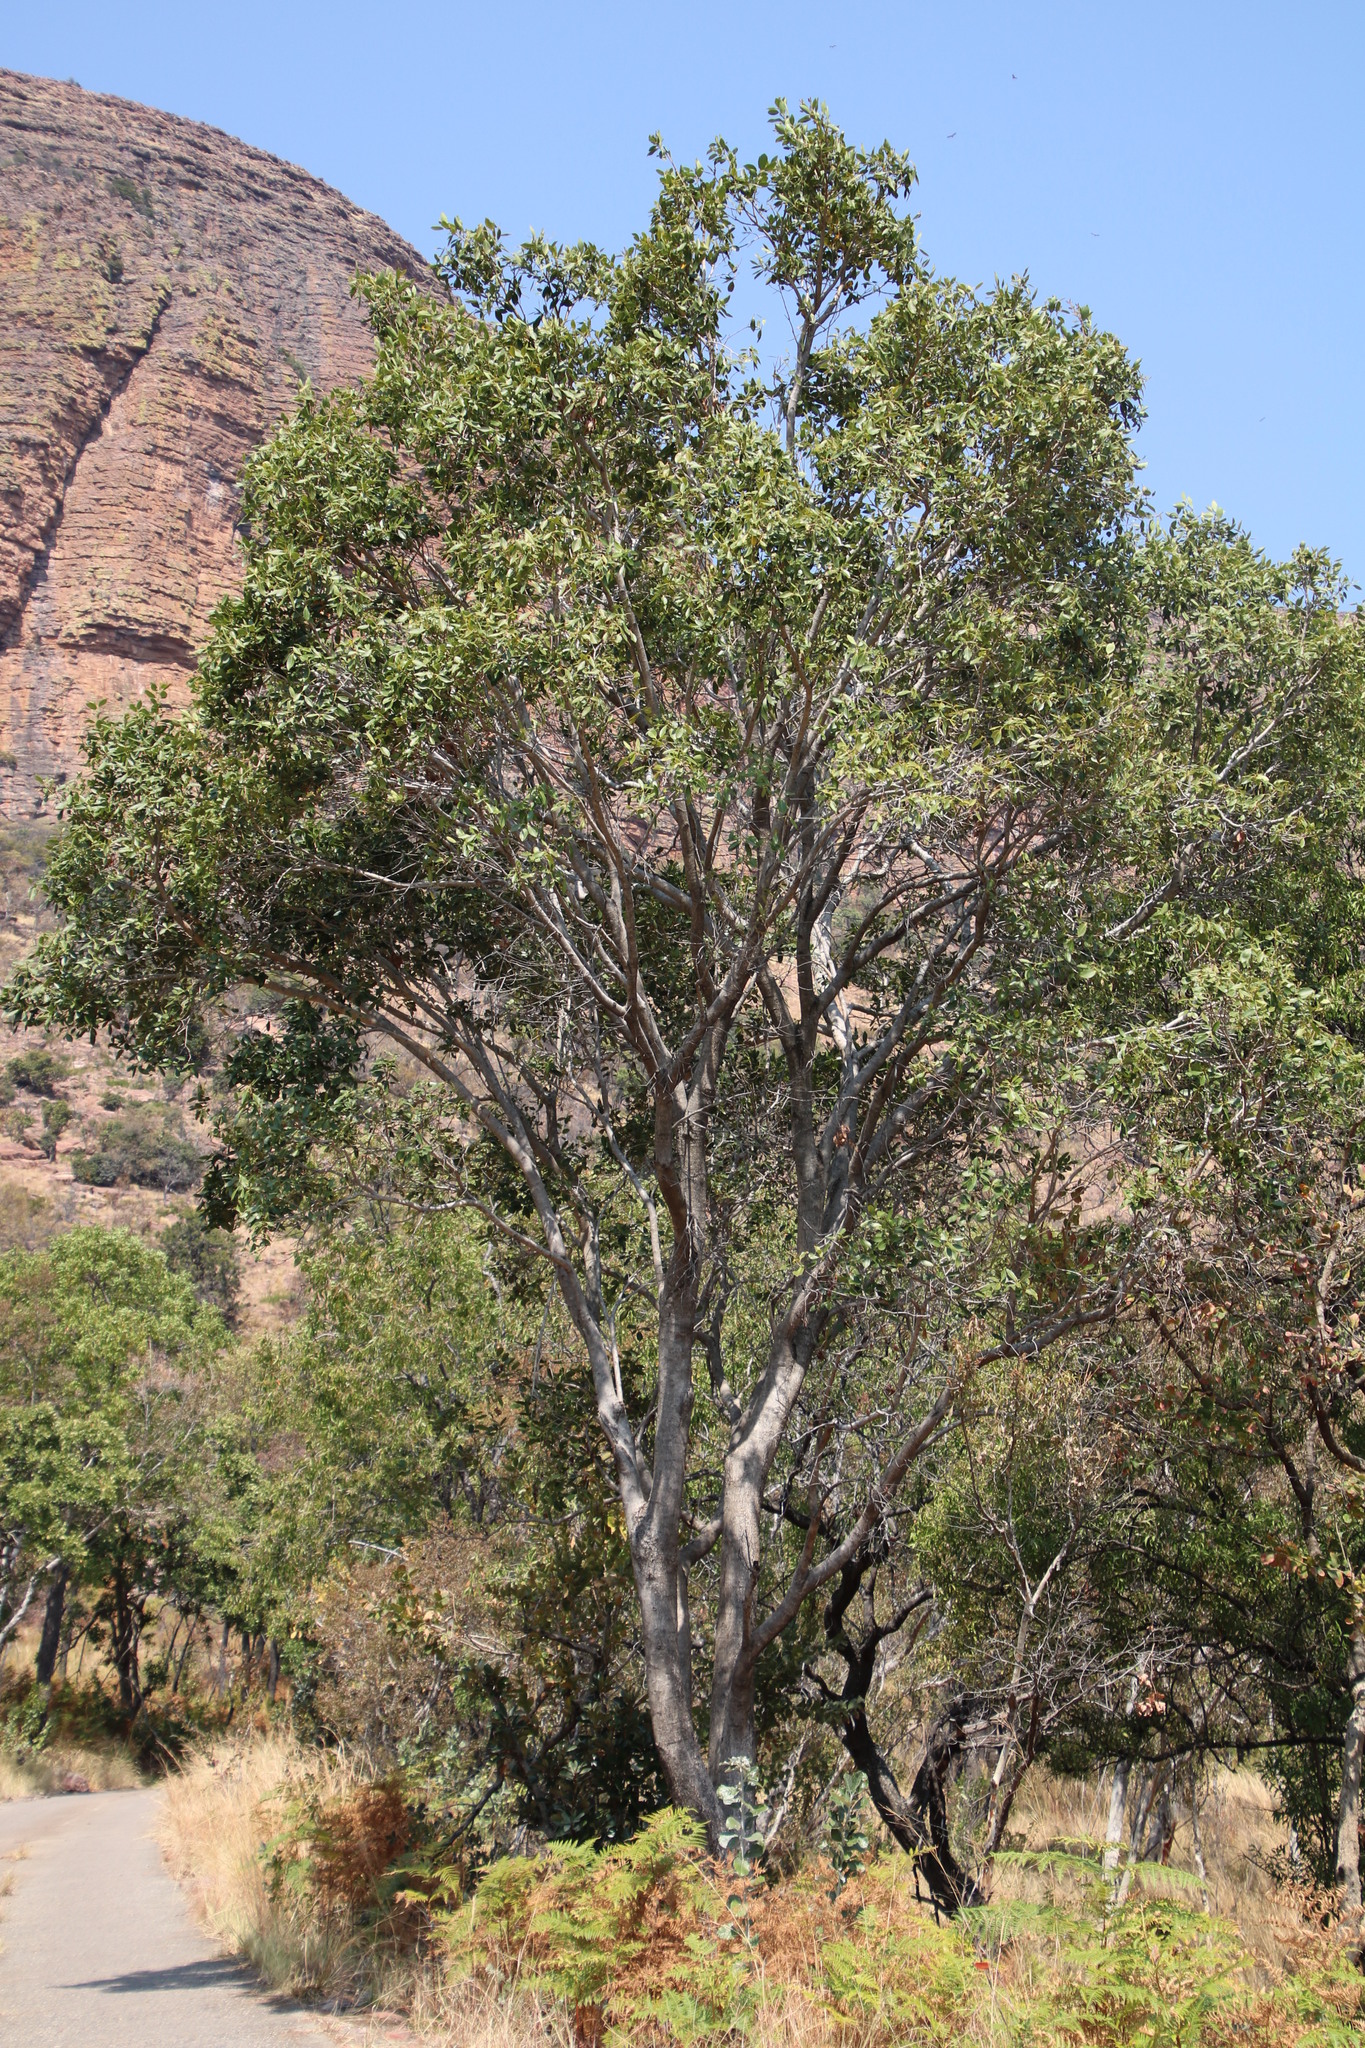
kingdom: Plantae
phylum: Tracheophyta
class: Magnoliopsida
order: Myrtales
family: Myrtaceae
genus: Syzygium
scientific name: Syzygium guineense
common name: Water-pear
